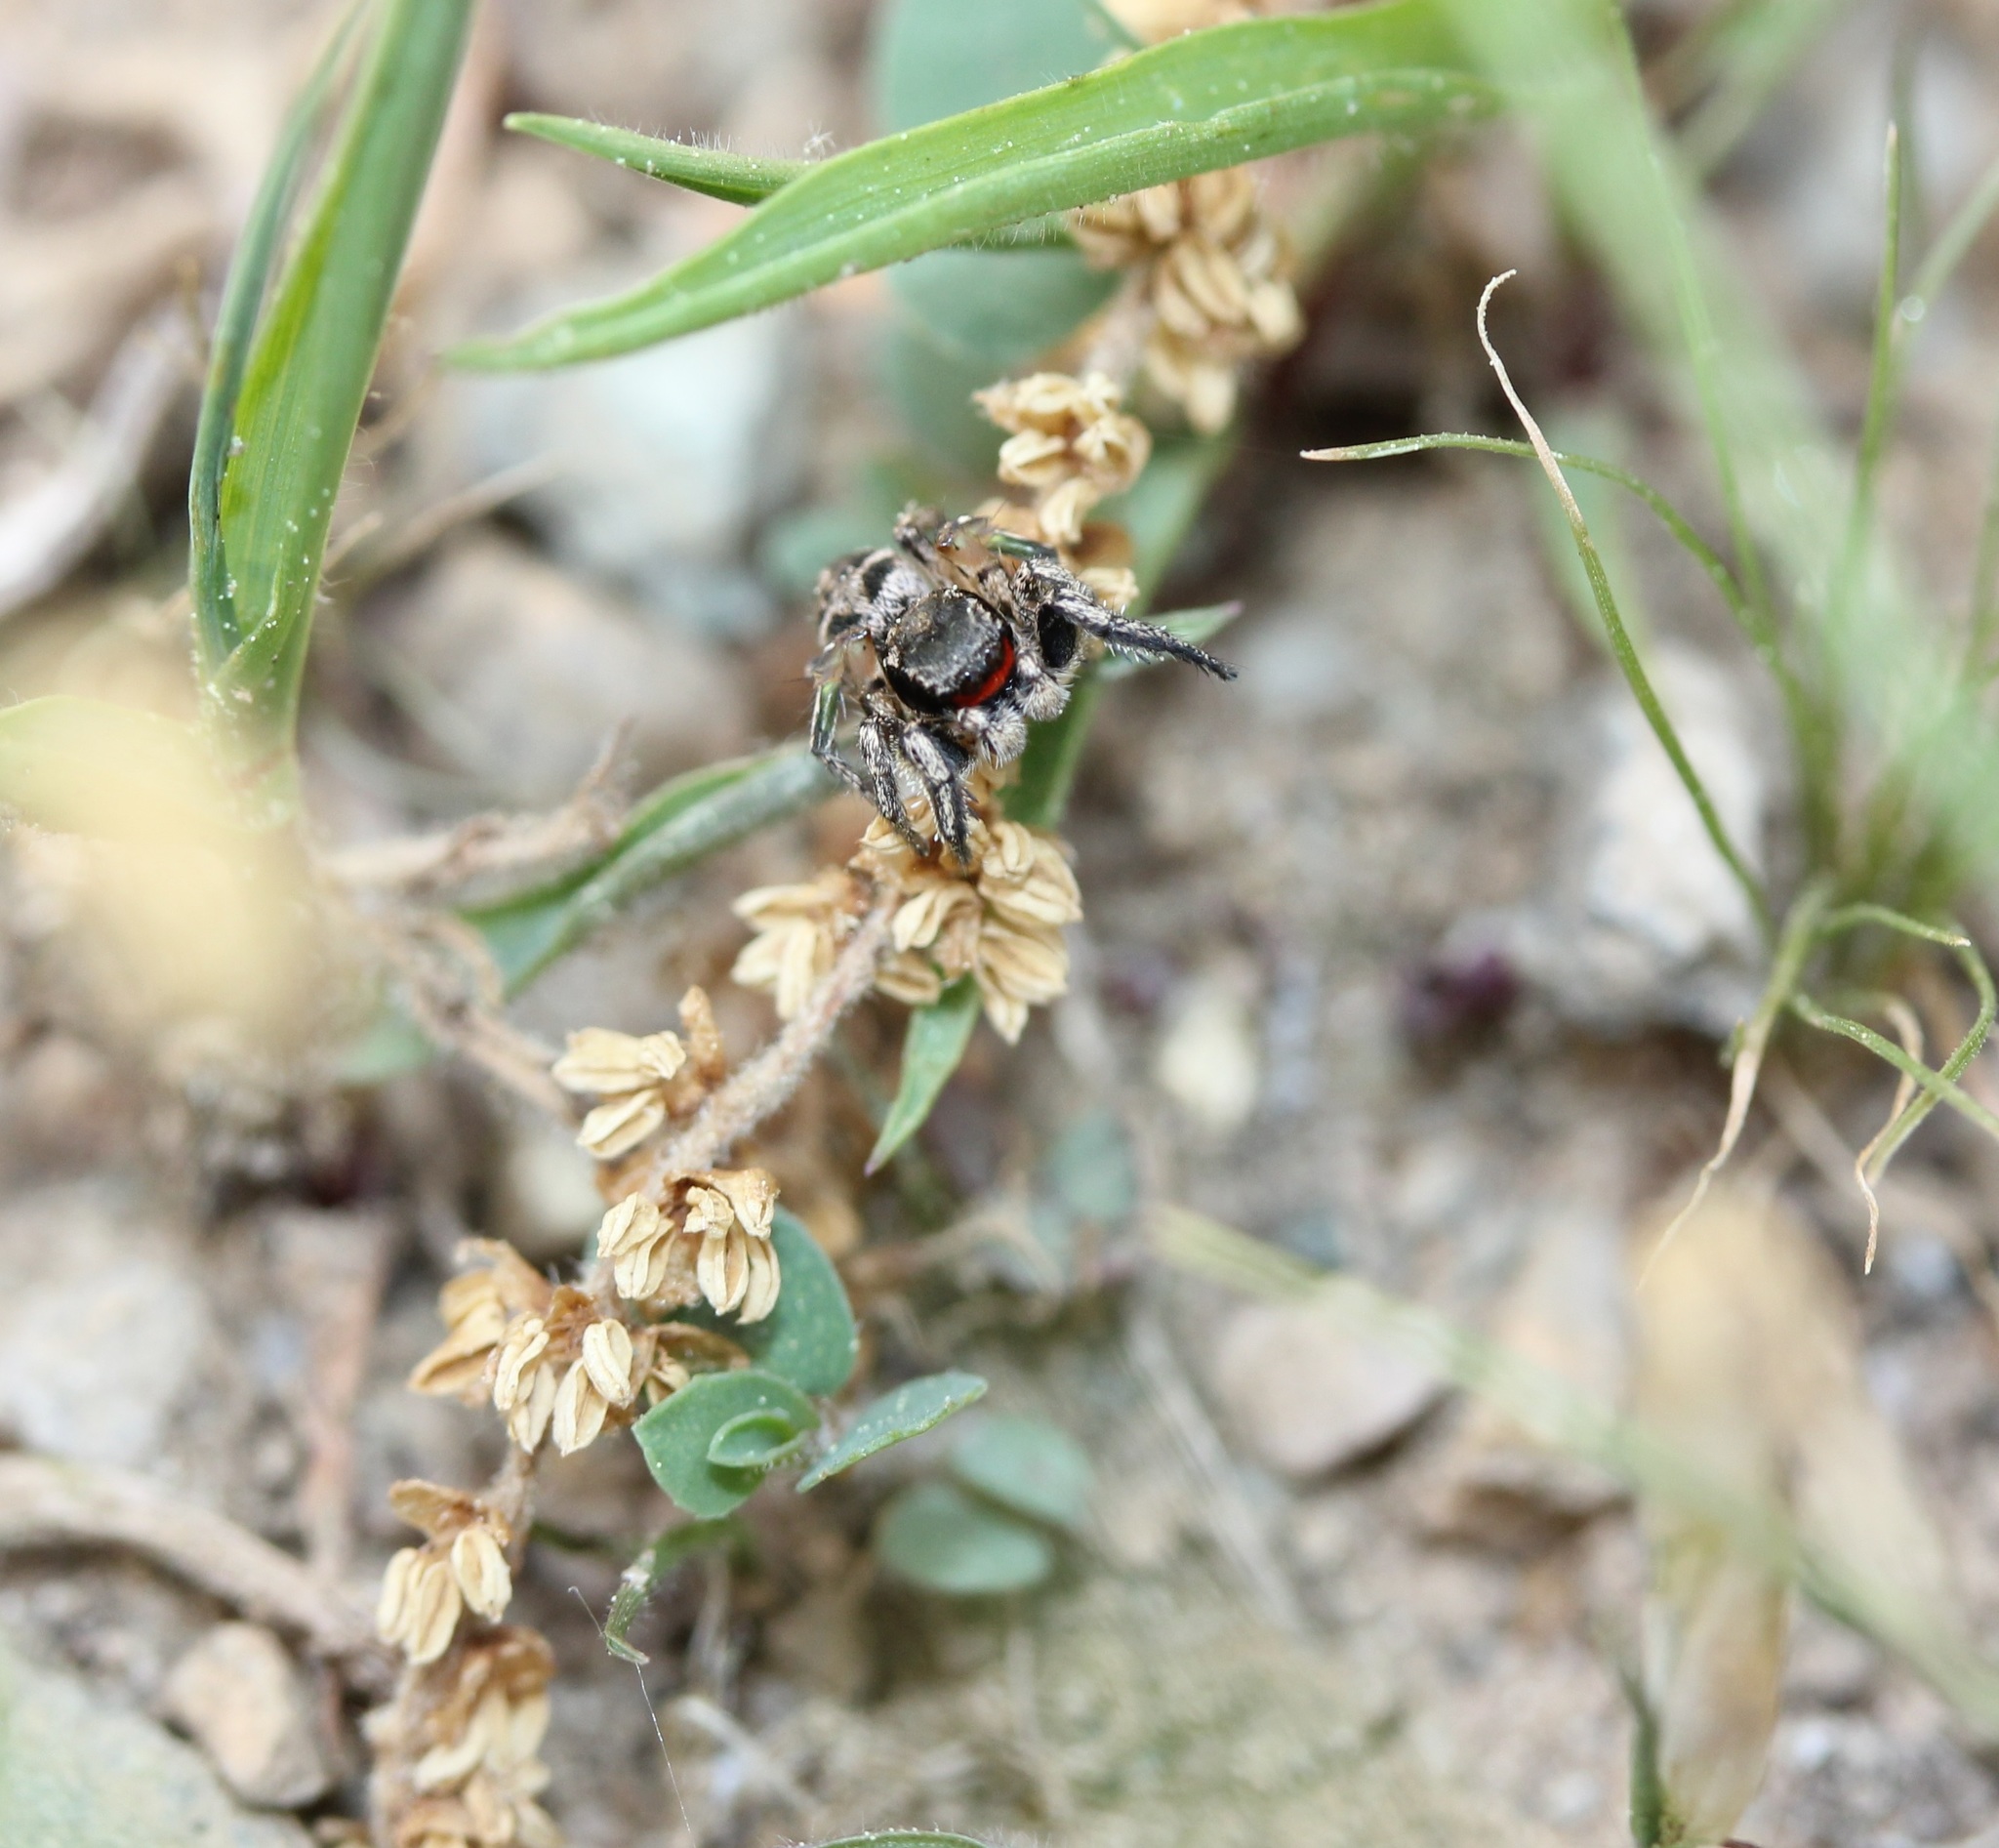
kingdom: Animalia
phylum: Arthropoda
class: Arachnida
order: Araneae
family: Salticidae
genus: Habronattus
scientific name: Habronattus coecatus
